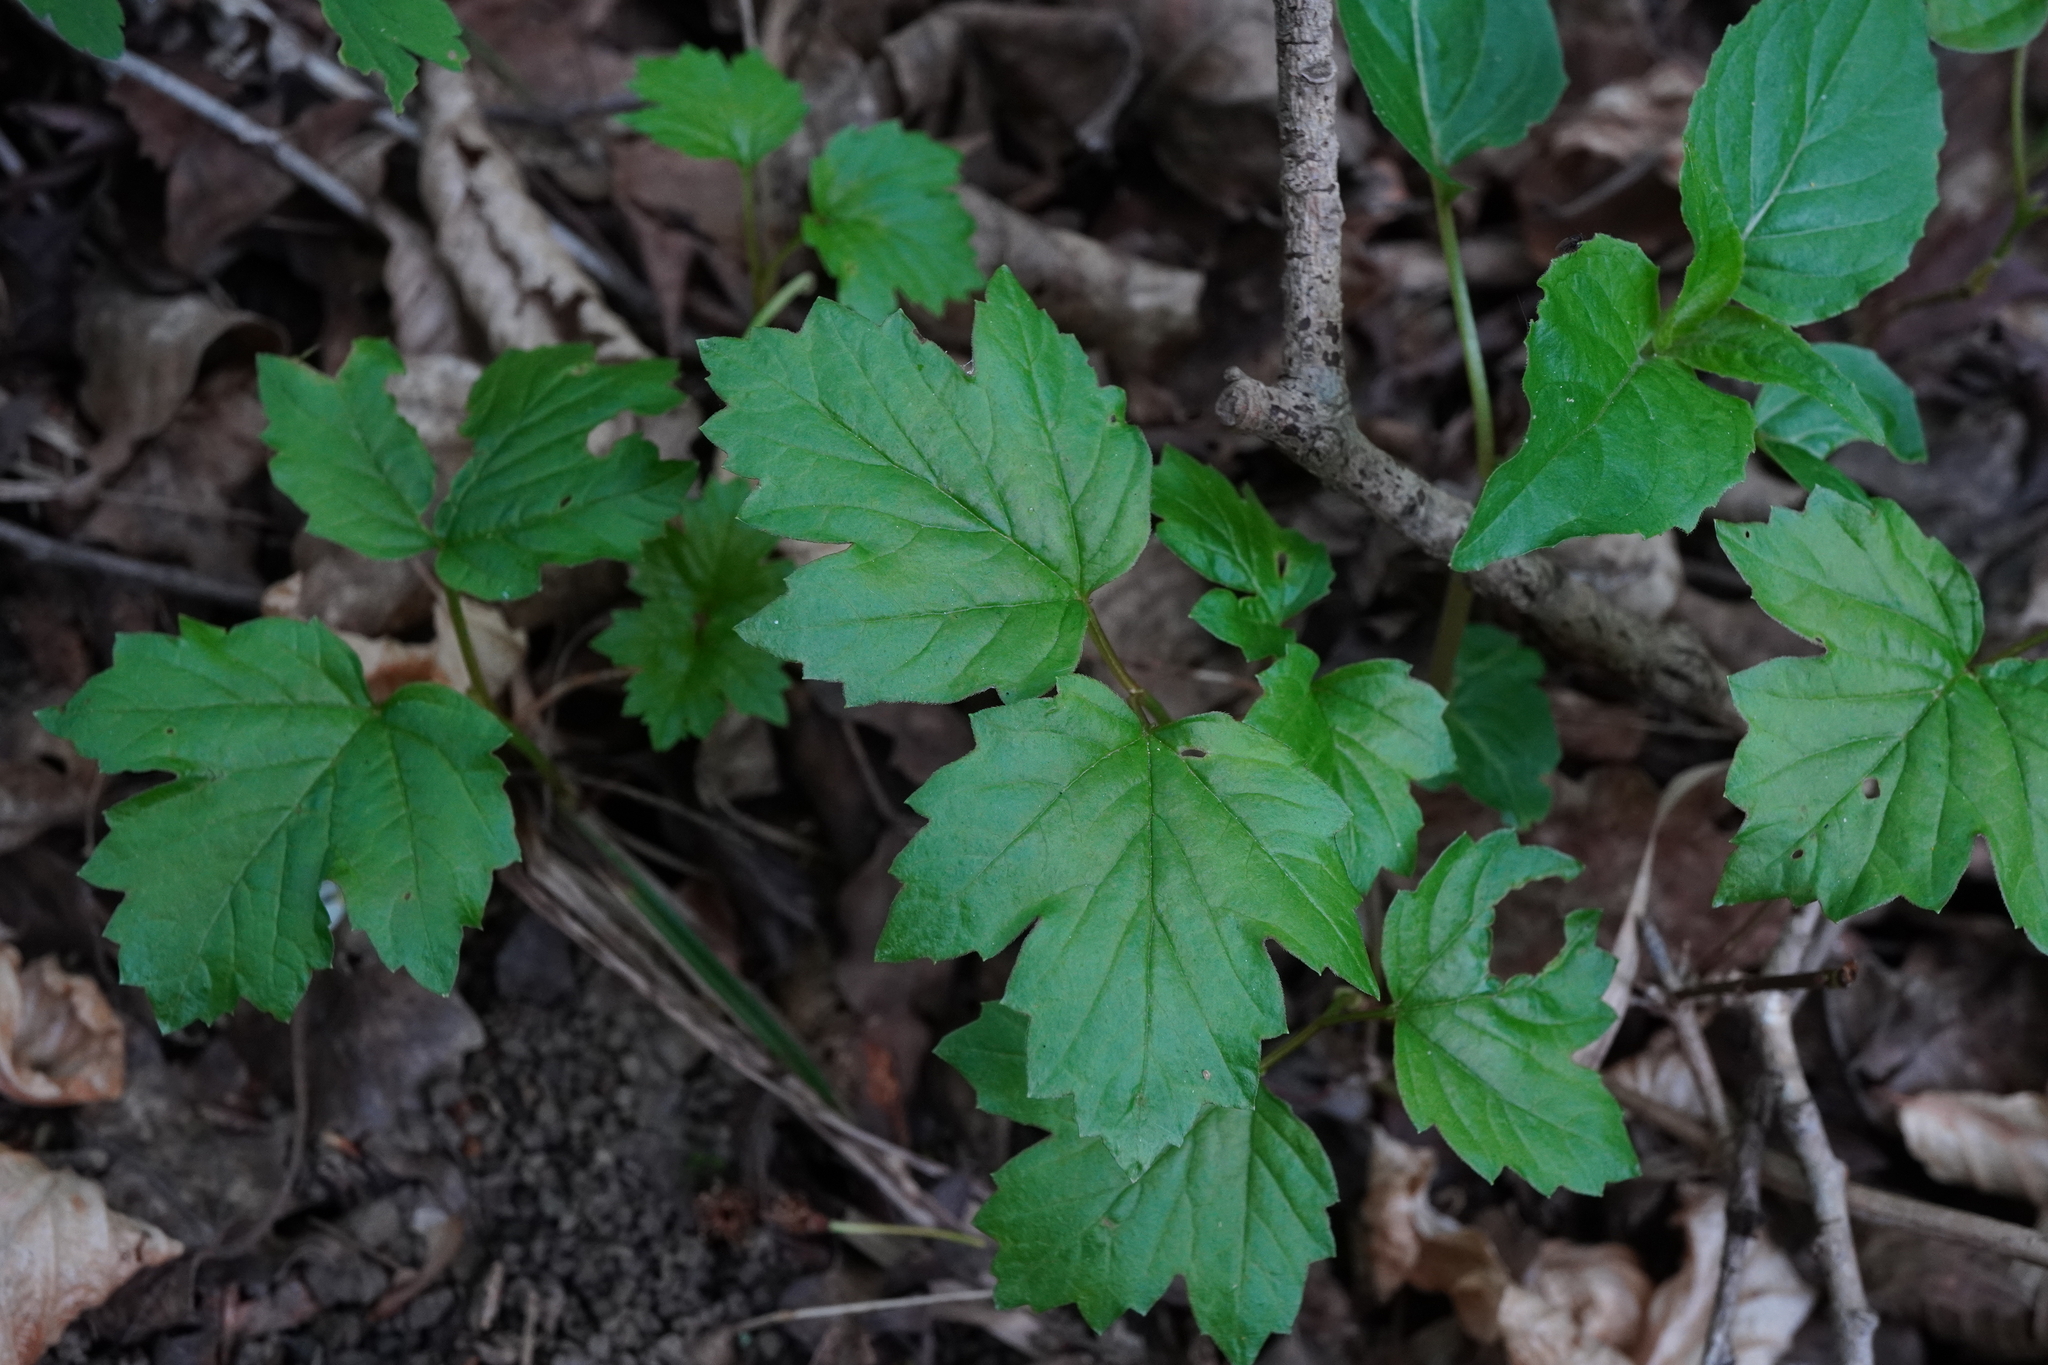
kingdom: Plantae
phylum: Tracheophyta
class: Magnoliopsida
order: Dipsacales
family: Viburnaceae
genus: Viburnum
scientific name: Viburnum opulus
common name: Guelder-rose
